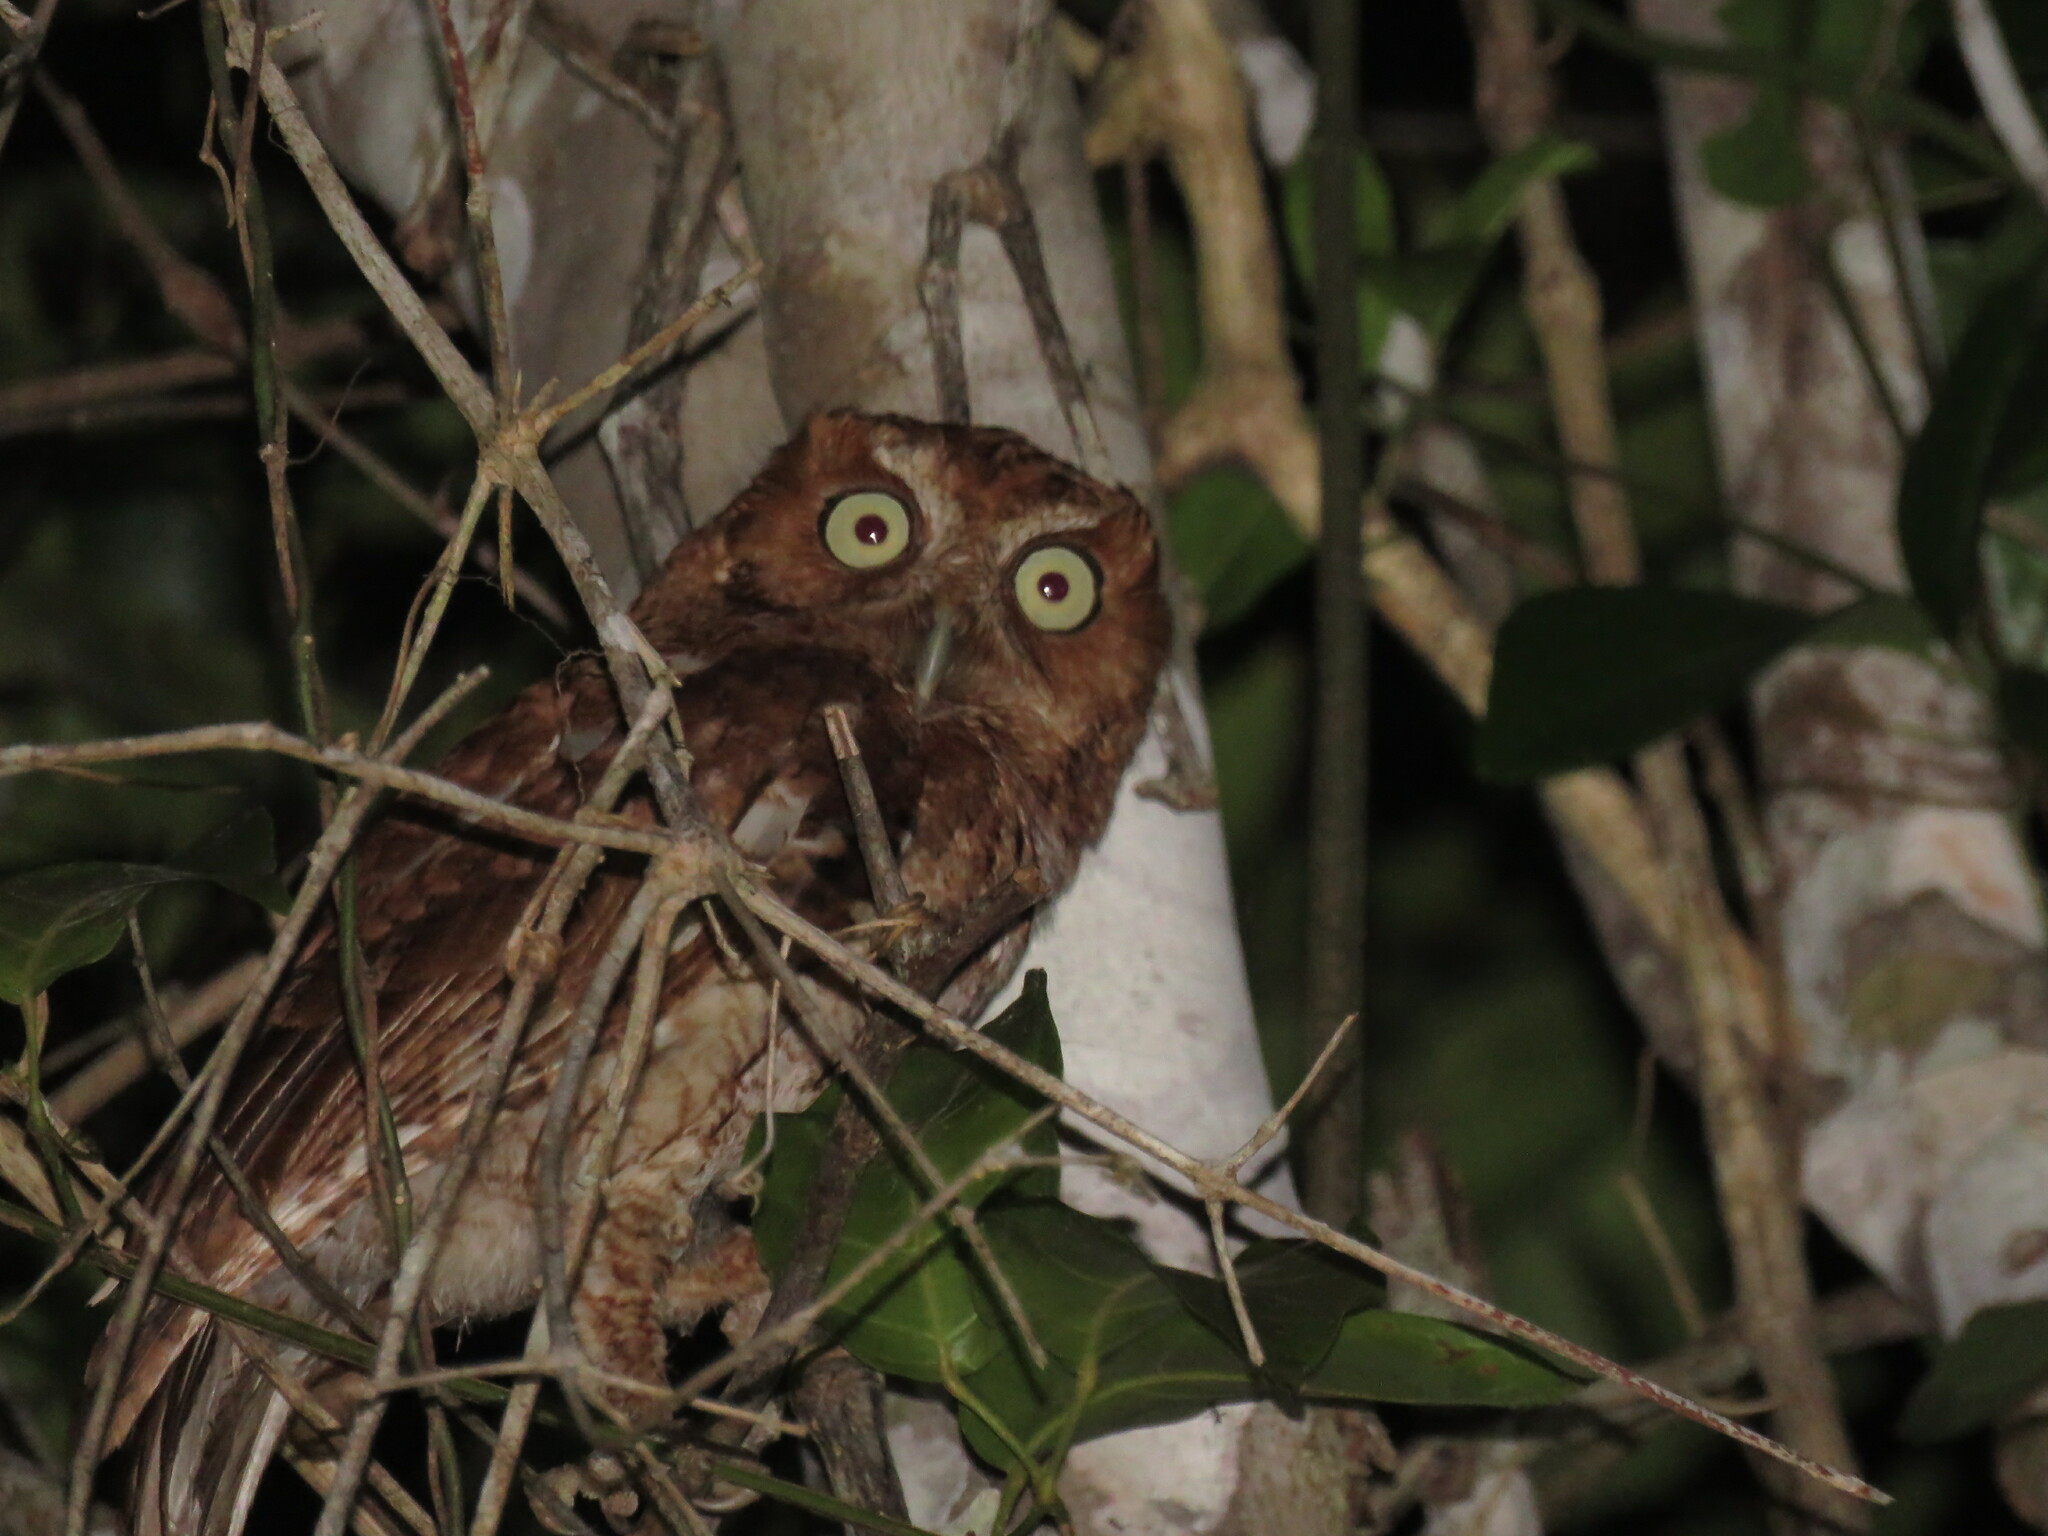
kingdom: Animalia
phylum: Chordata
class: Aves
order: Strigiformes
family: Strigidae
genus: Megascops
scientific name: Megascops guatemalae
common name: Vermiculated screech-owl
